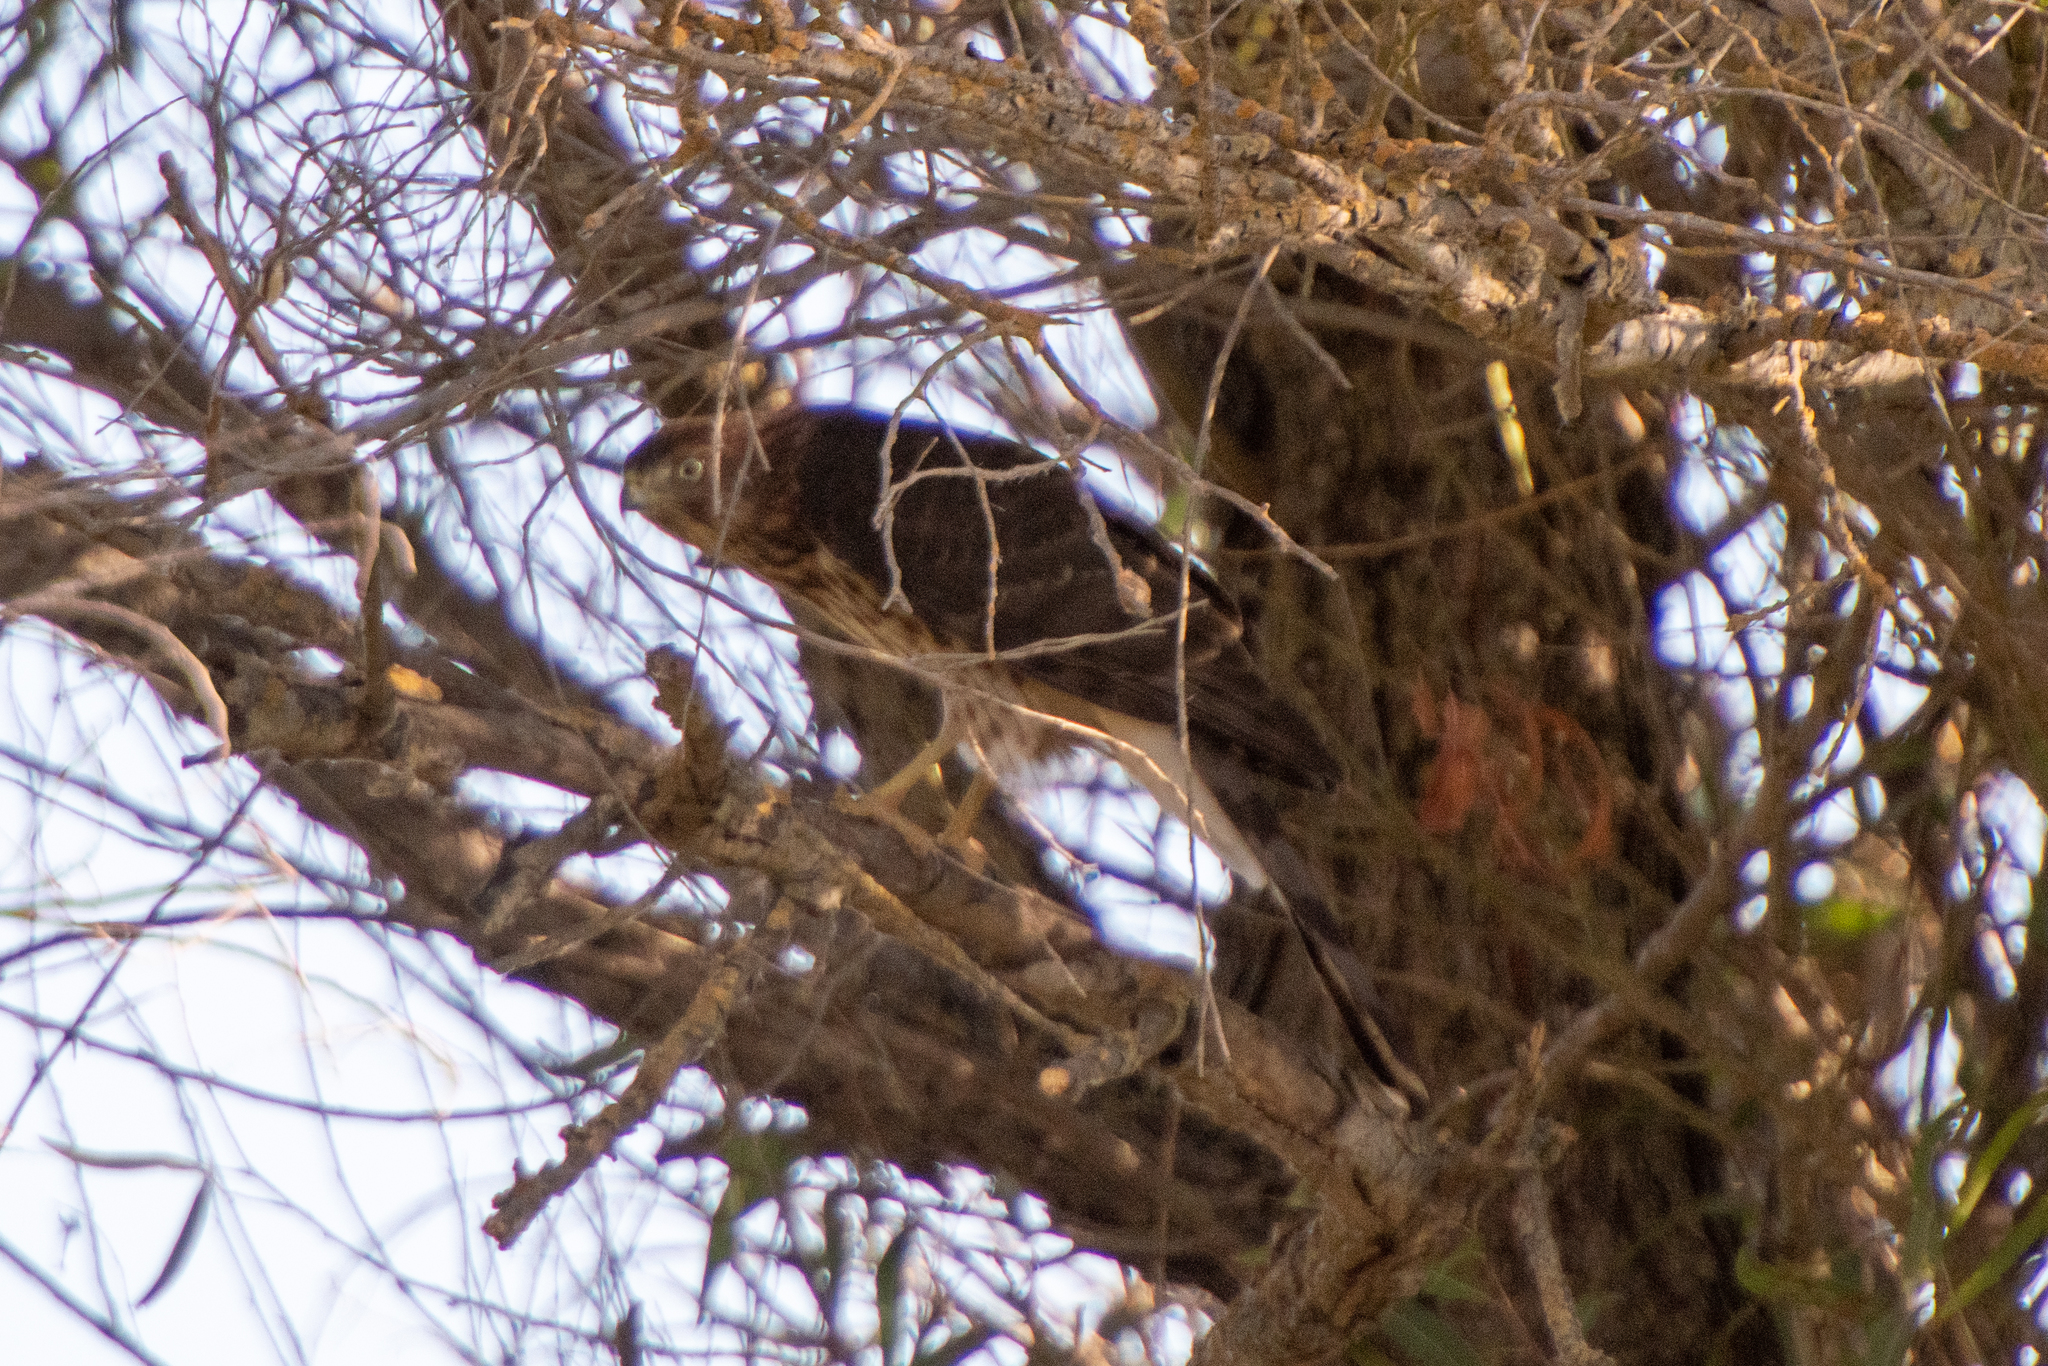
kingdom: Animalia
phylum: Chordata
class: Aves
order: Accipitriformes
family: Accipitridae
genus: Accipiter
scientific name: Accipiter cooperii
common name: Cooper's hawk
